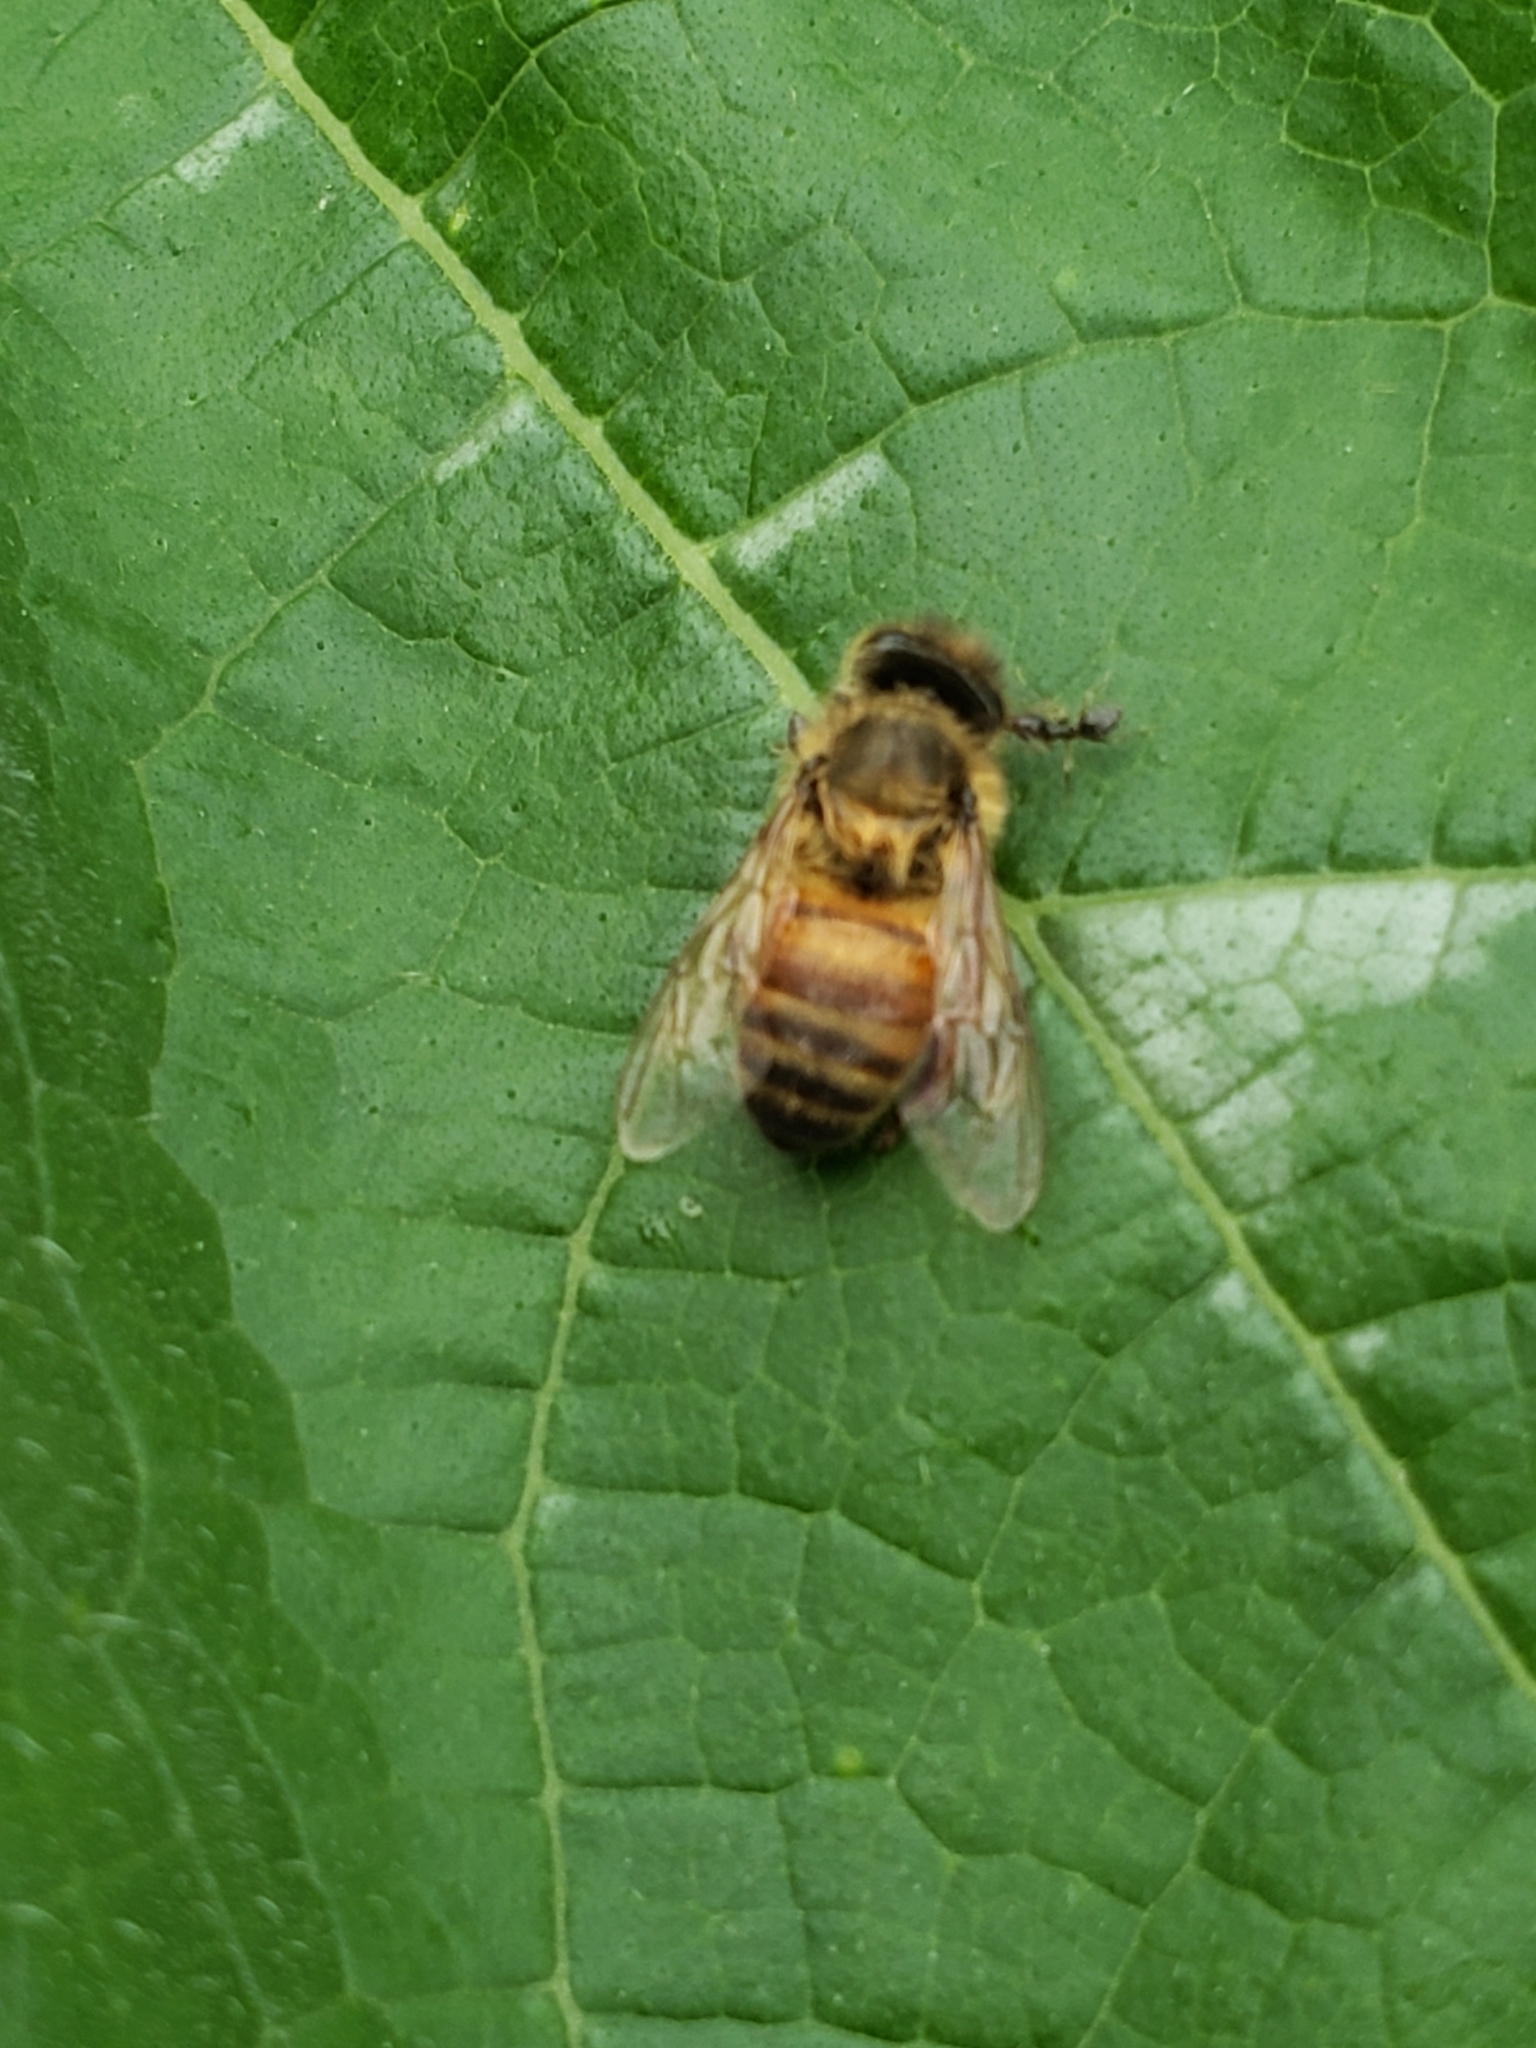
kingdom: Animalia
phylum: Arthropoda
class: Insecta
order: Hymenoptera
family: Apidae
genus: Apis
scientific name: Apis mellifera
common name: Honey bee
